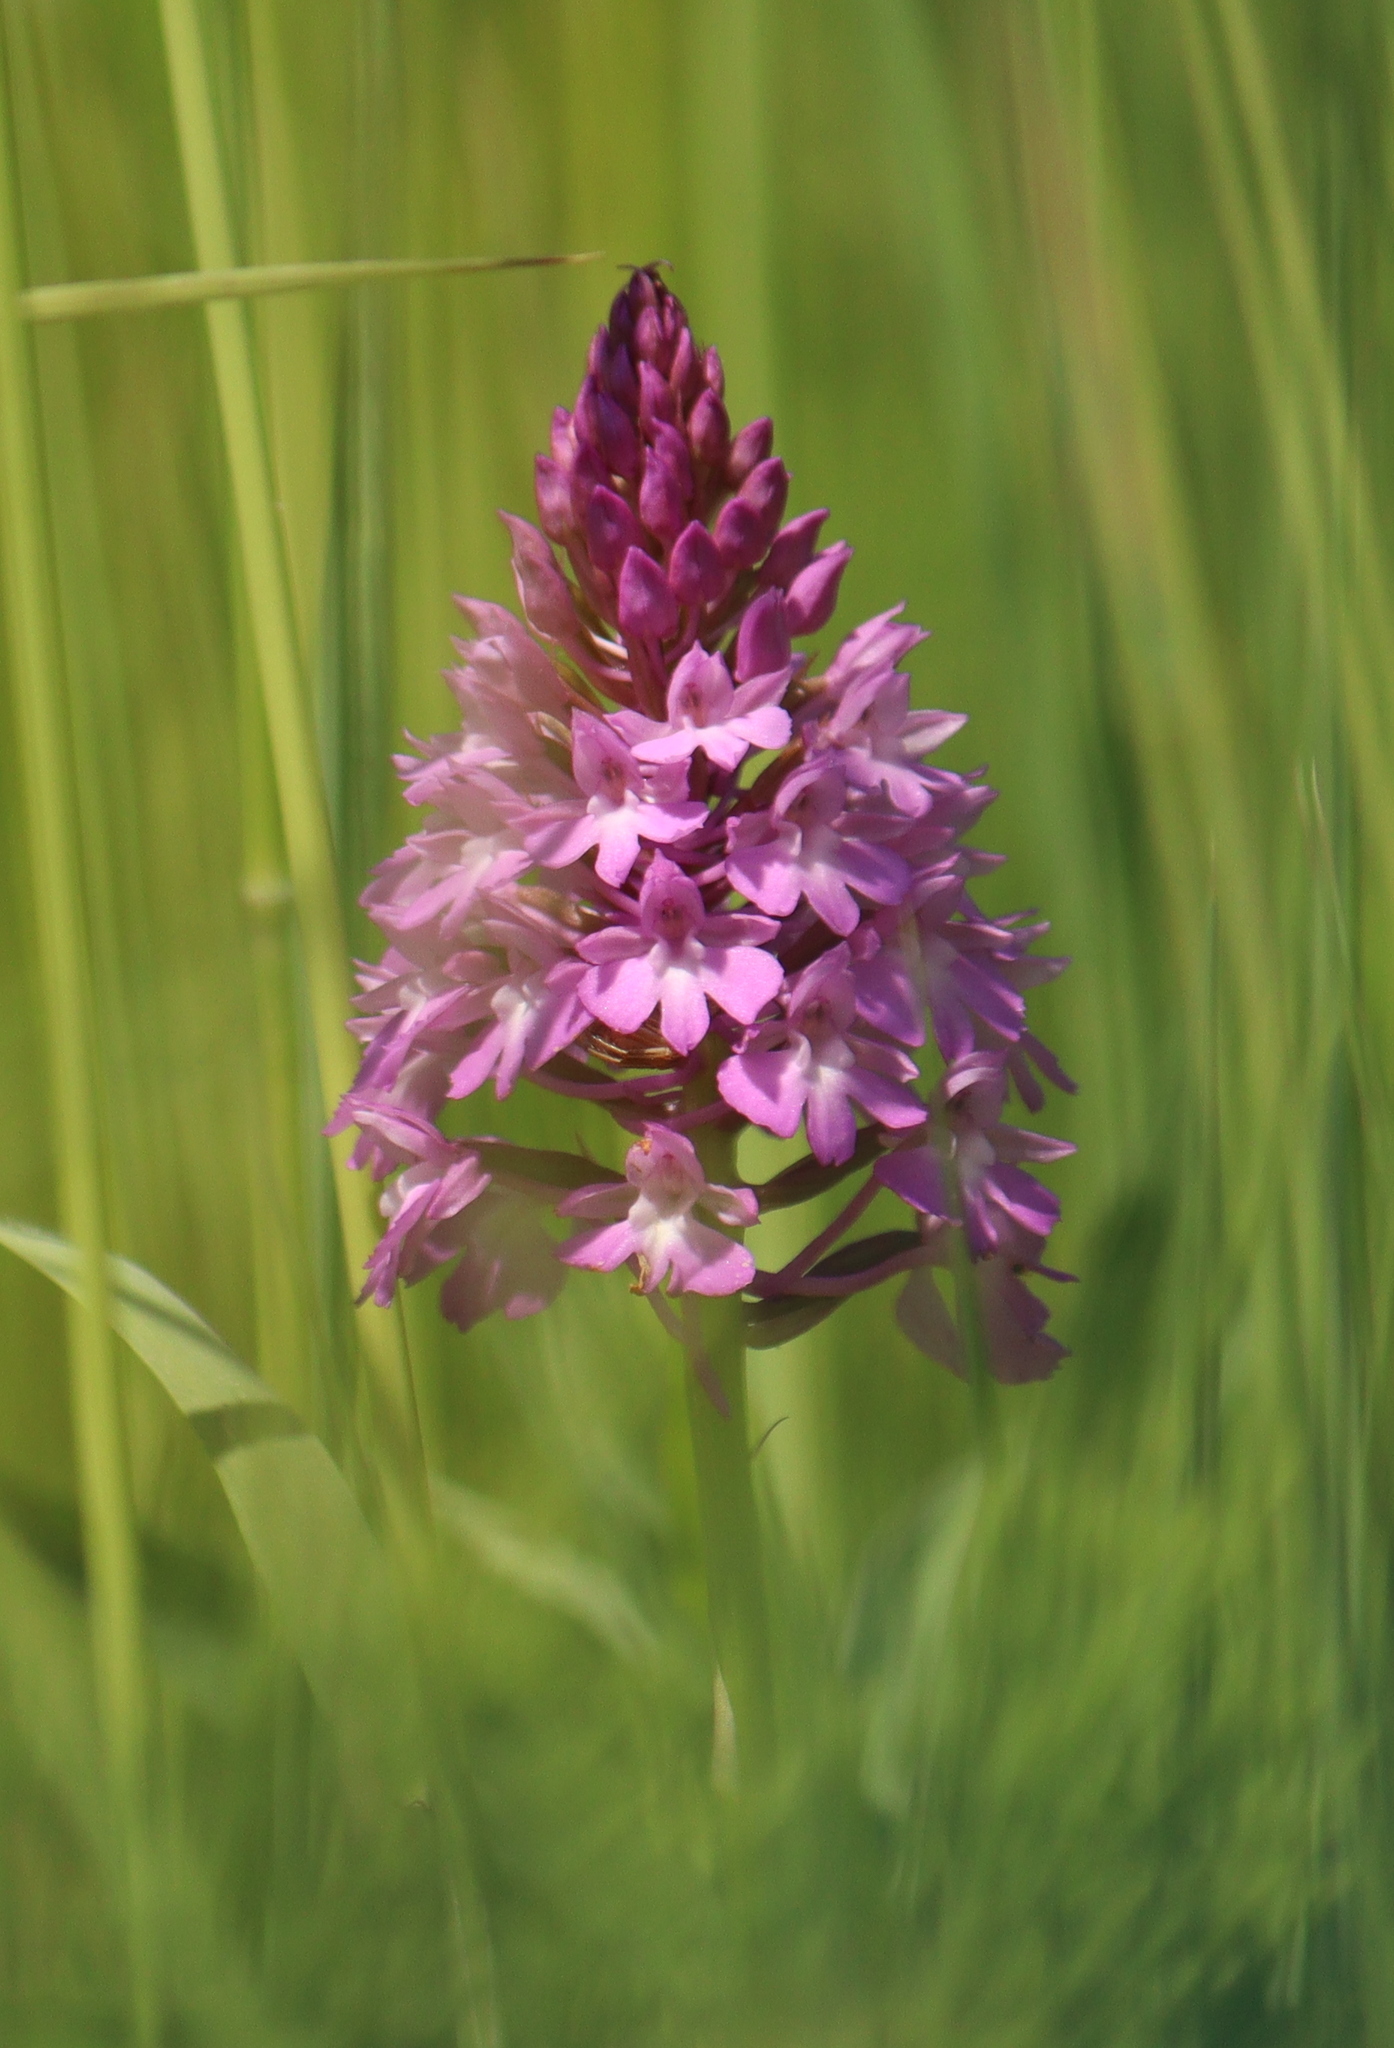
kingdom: Plantae
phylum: Tracheophyta
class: Liliopsida
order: Asparagales
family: Orchidaceae
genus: Anacamptis
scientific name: Anacamptis pyramidalis
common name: Pyramidal orchid
